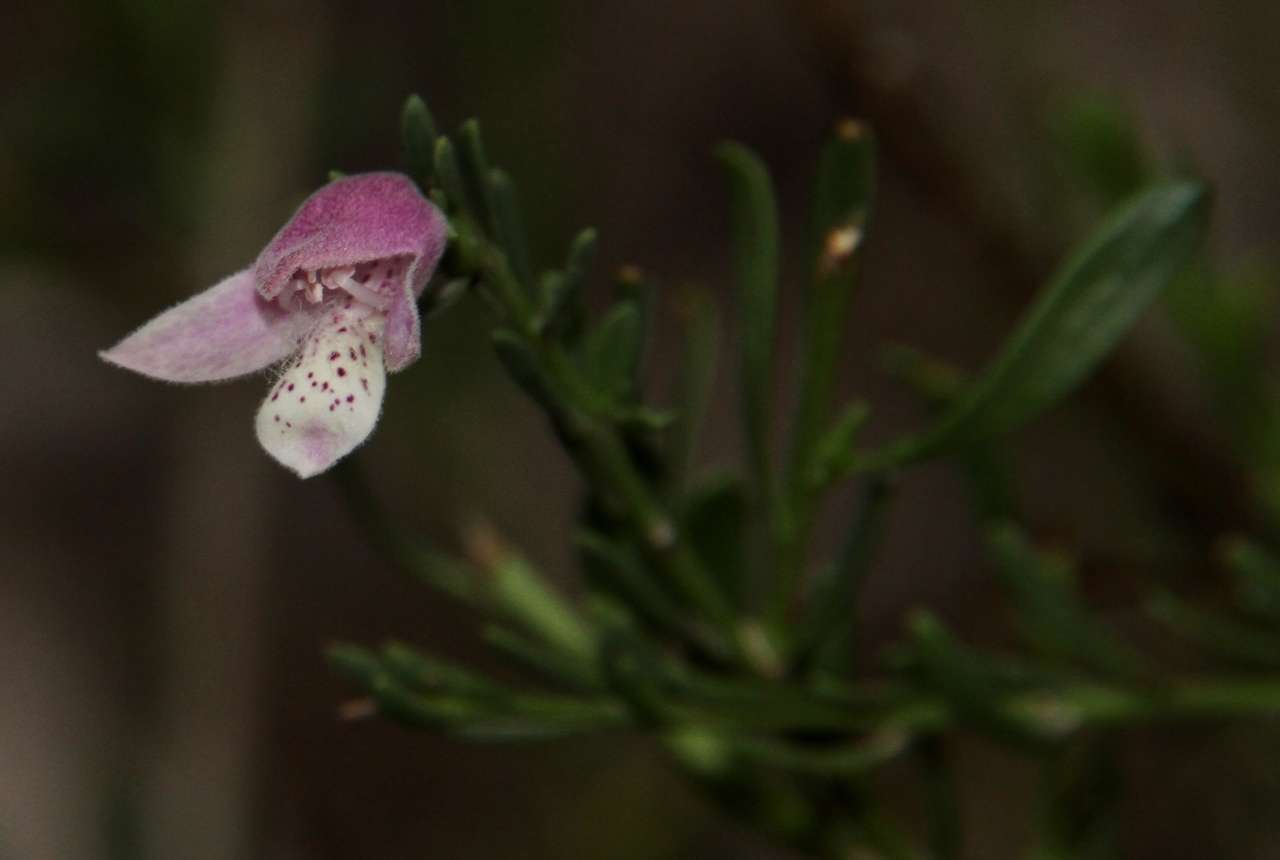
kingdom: Plantae
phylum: Tracheophyta
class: Magnoliopsida
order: Lamiales
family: Scrophulariaceae
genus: Eremophila
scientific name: Eremophila divaricata
